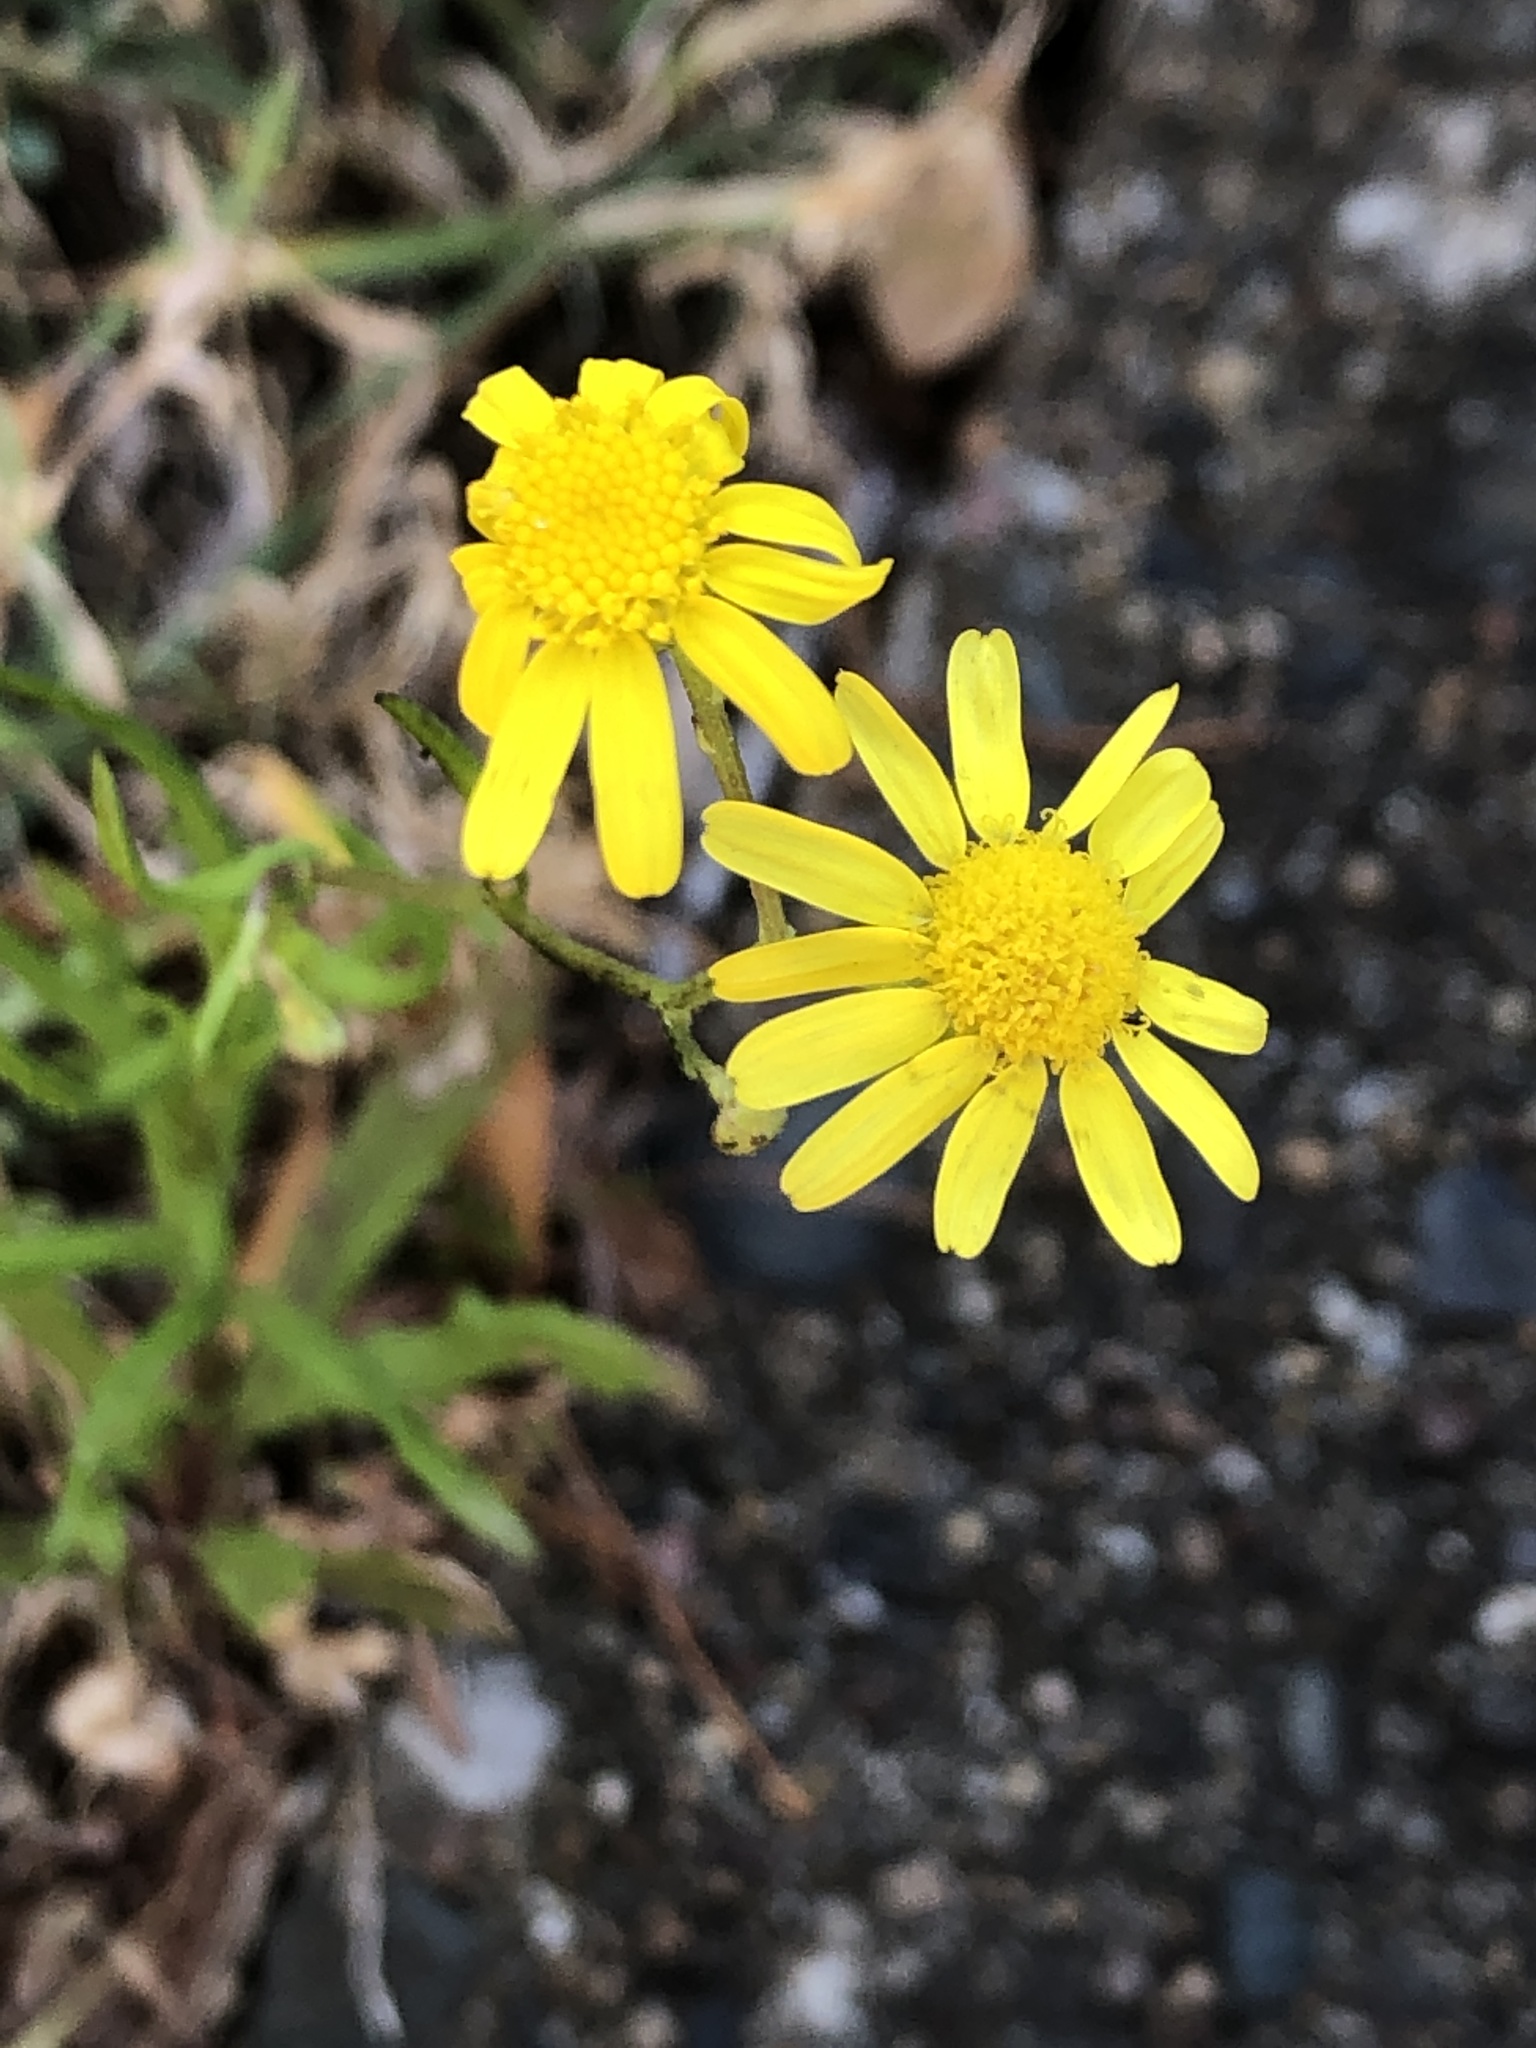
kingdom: Plantae
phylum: Tracheophyta
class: Magnoliopsida
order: Asterales
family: Asteraceae
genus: Senecio
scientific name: Senecio madagascariensis
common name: Madagascar ragwort
